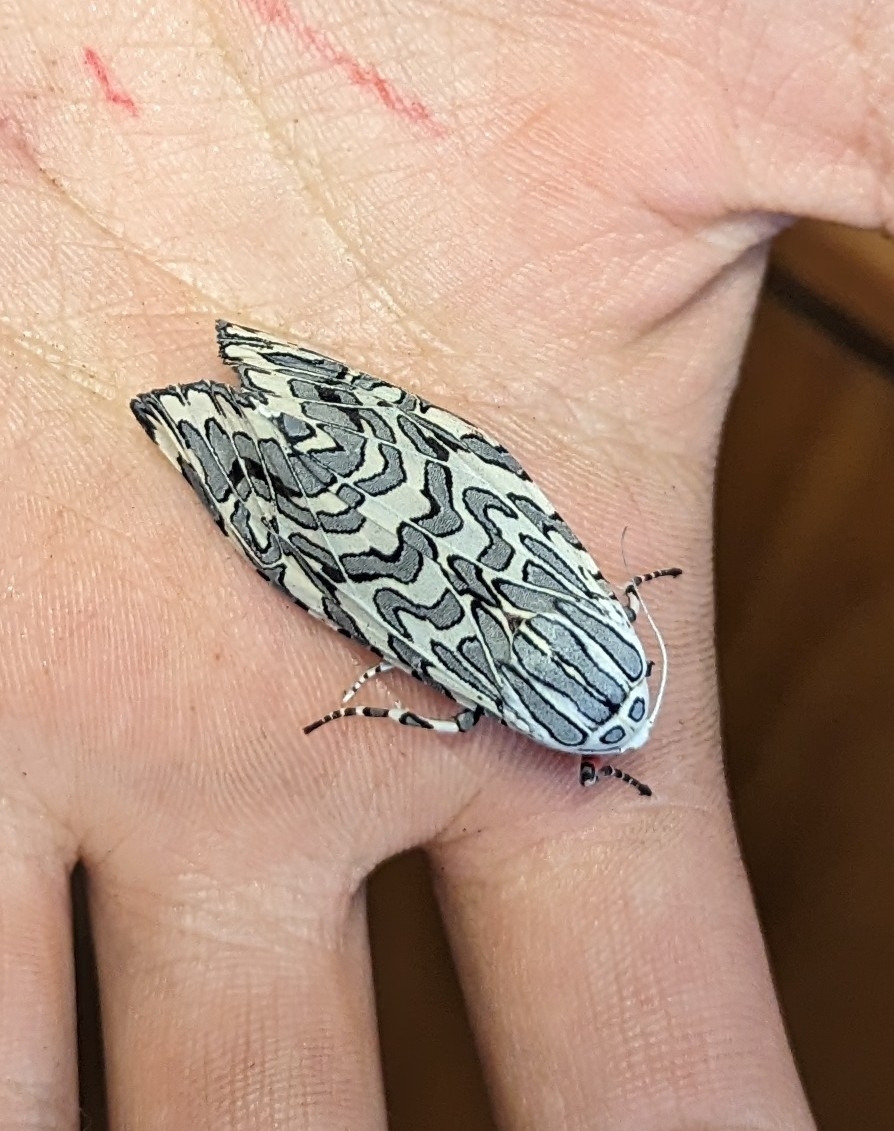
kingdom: Animalia
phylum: Arthropoda
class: Insecta
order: Lepidoptera
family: Erebidae
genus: Arachnis
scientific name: Arachnis picta
